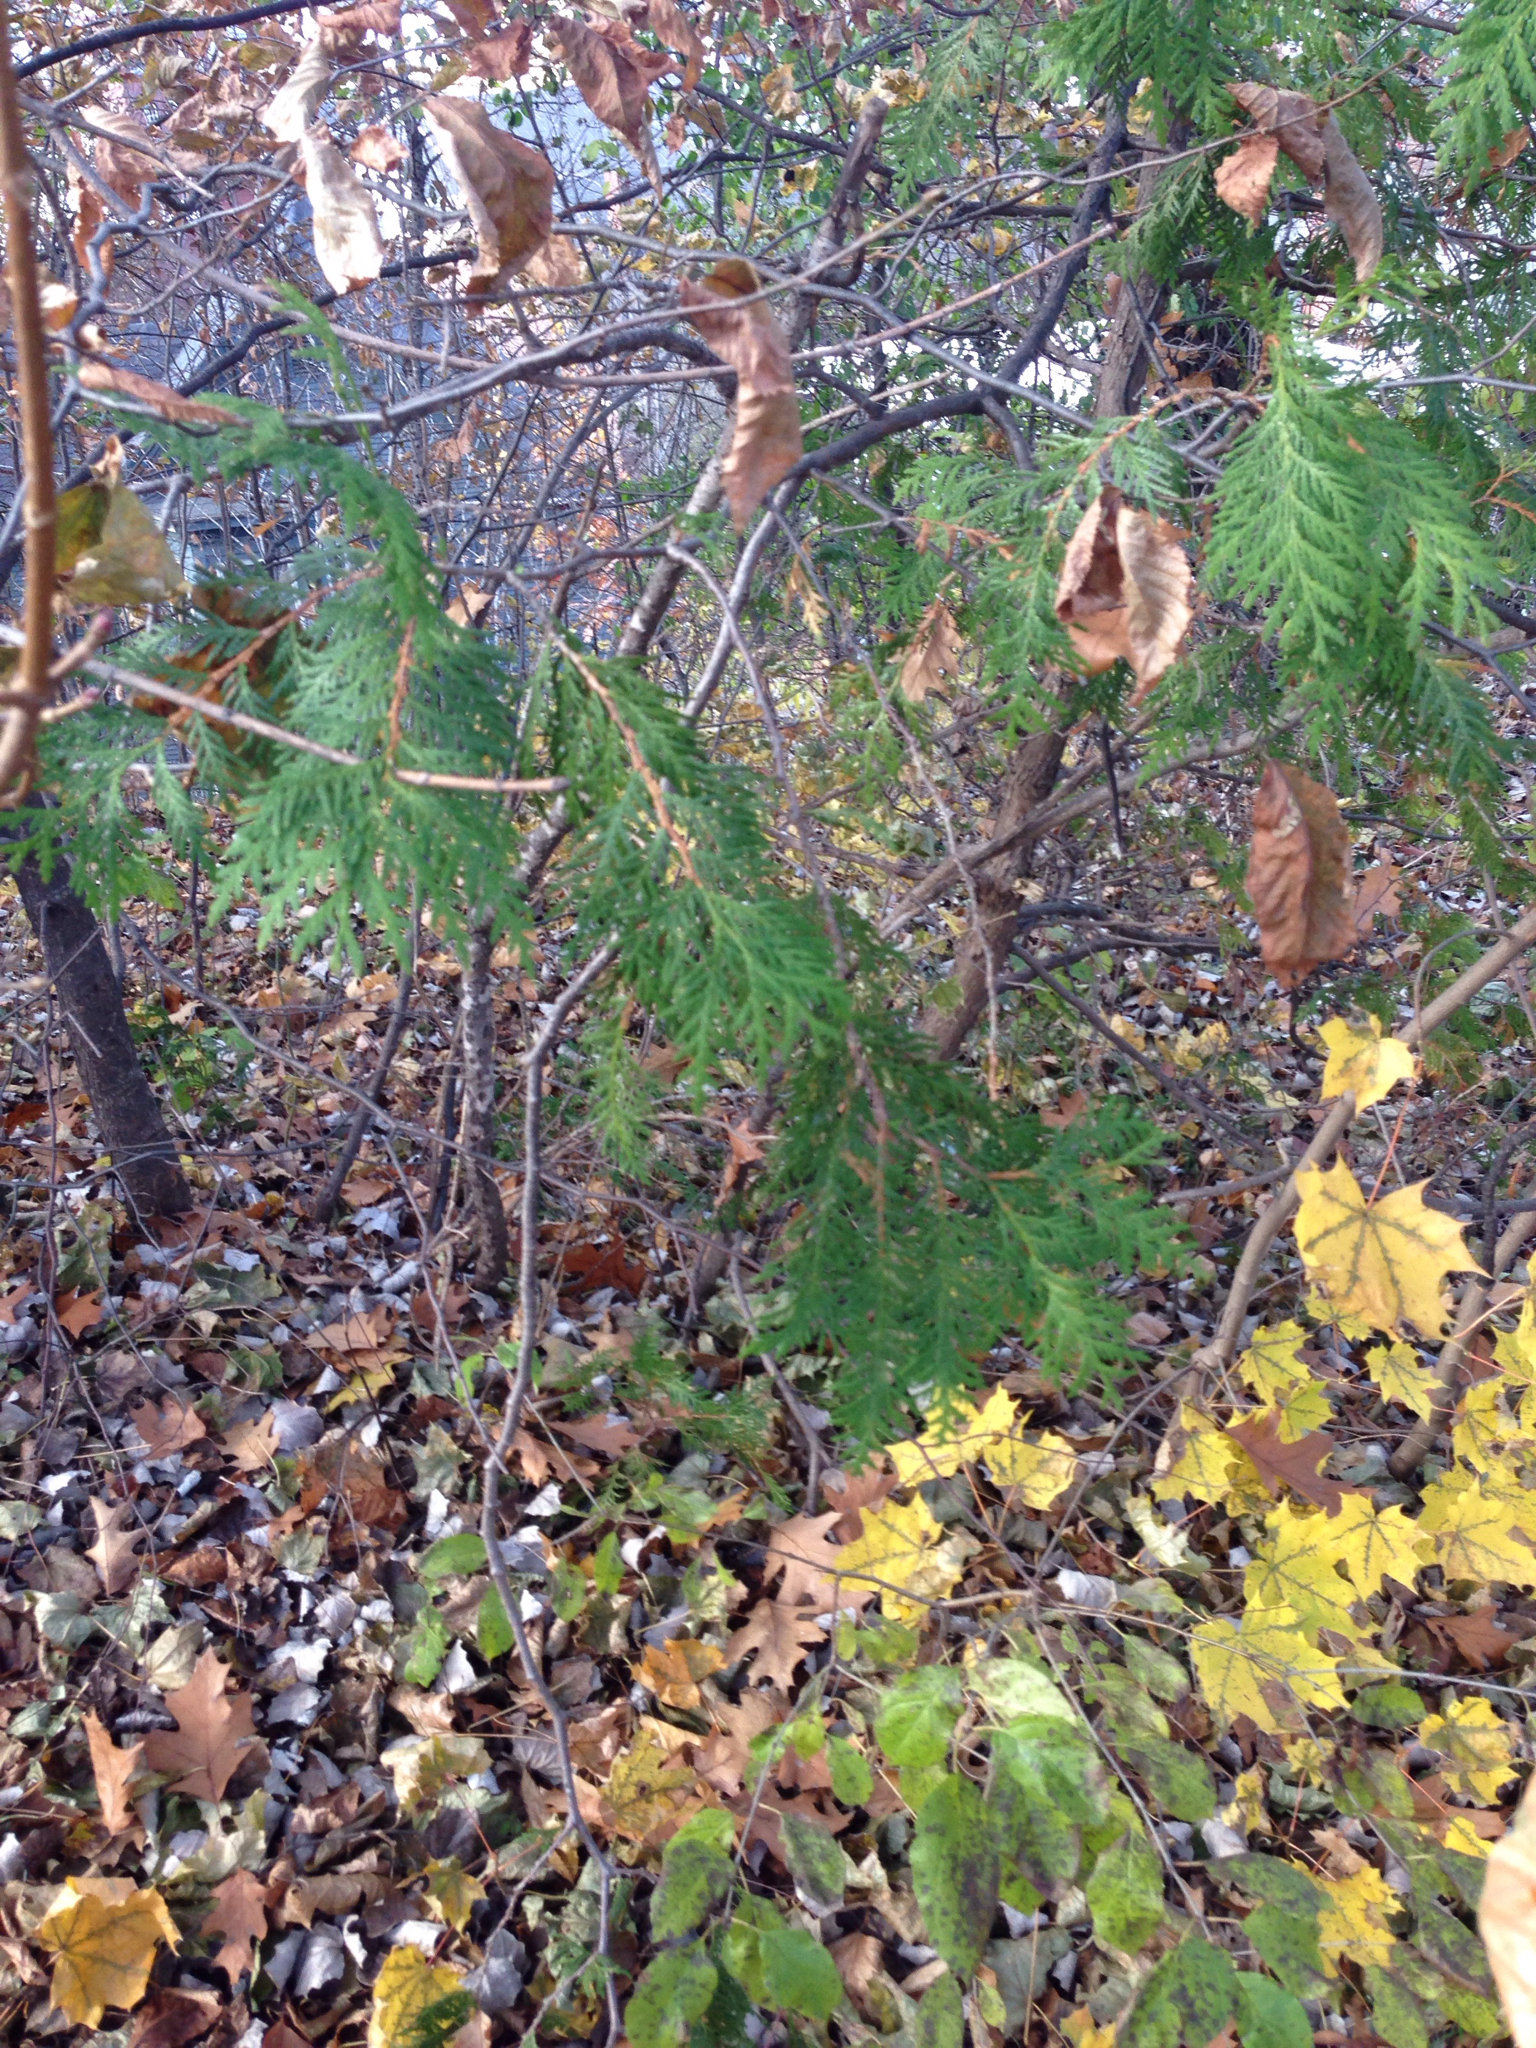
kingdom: Plantae
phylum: Tracheophyta
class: Pinopsida
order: Pinales
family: Cupressaceae
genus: Thuja
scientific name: Thuja occidentalis
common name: Northern white-cedar
